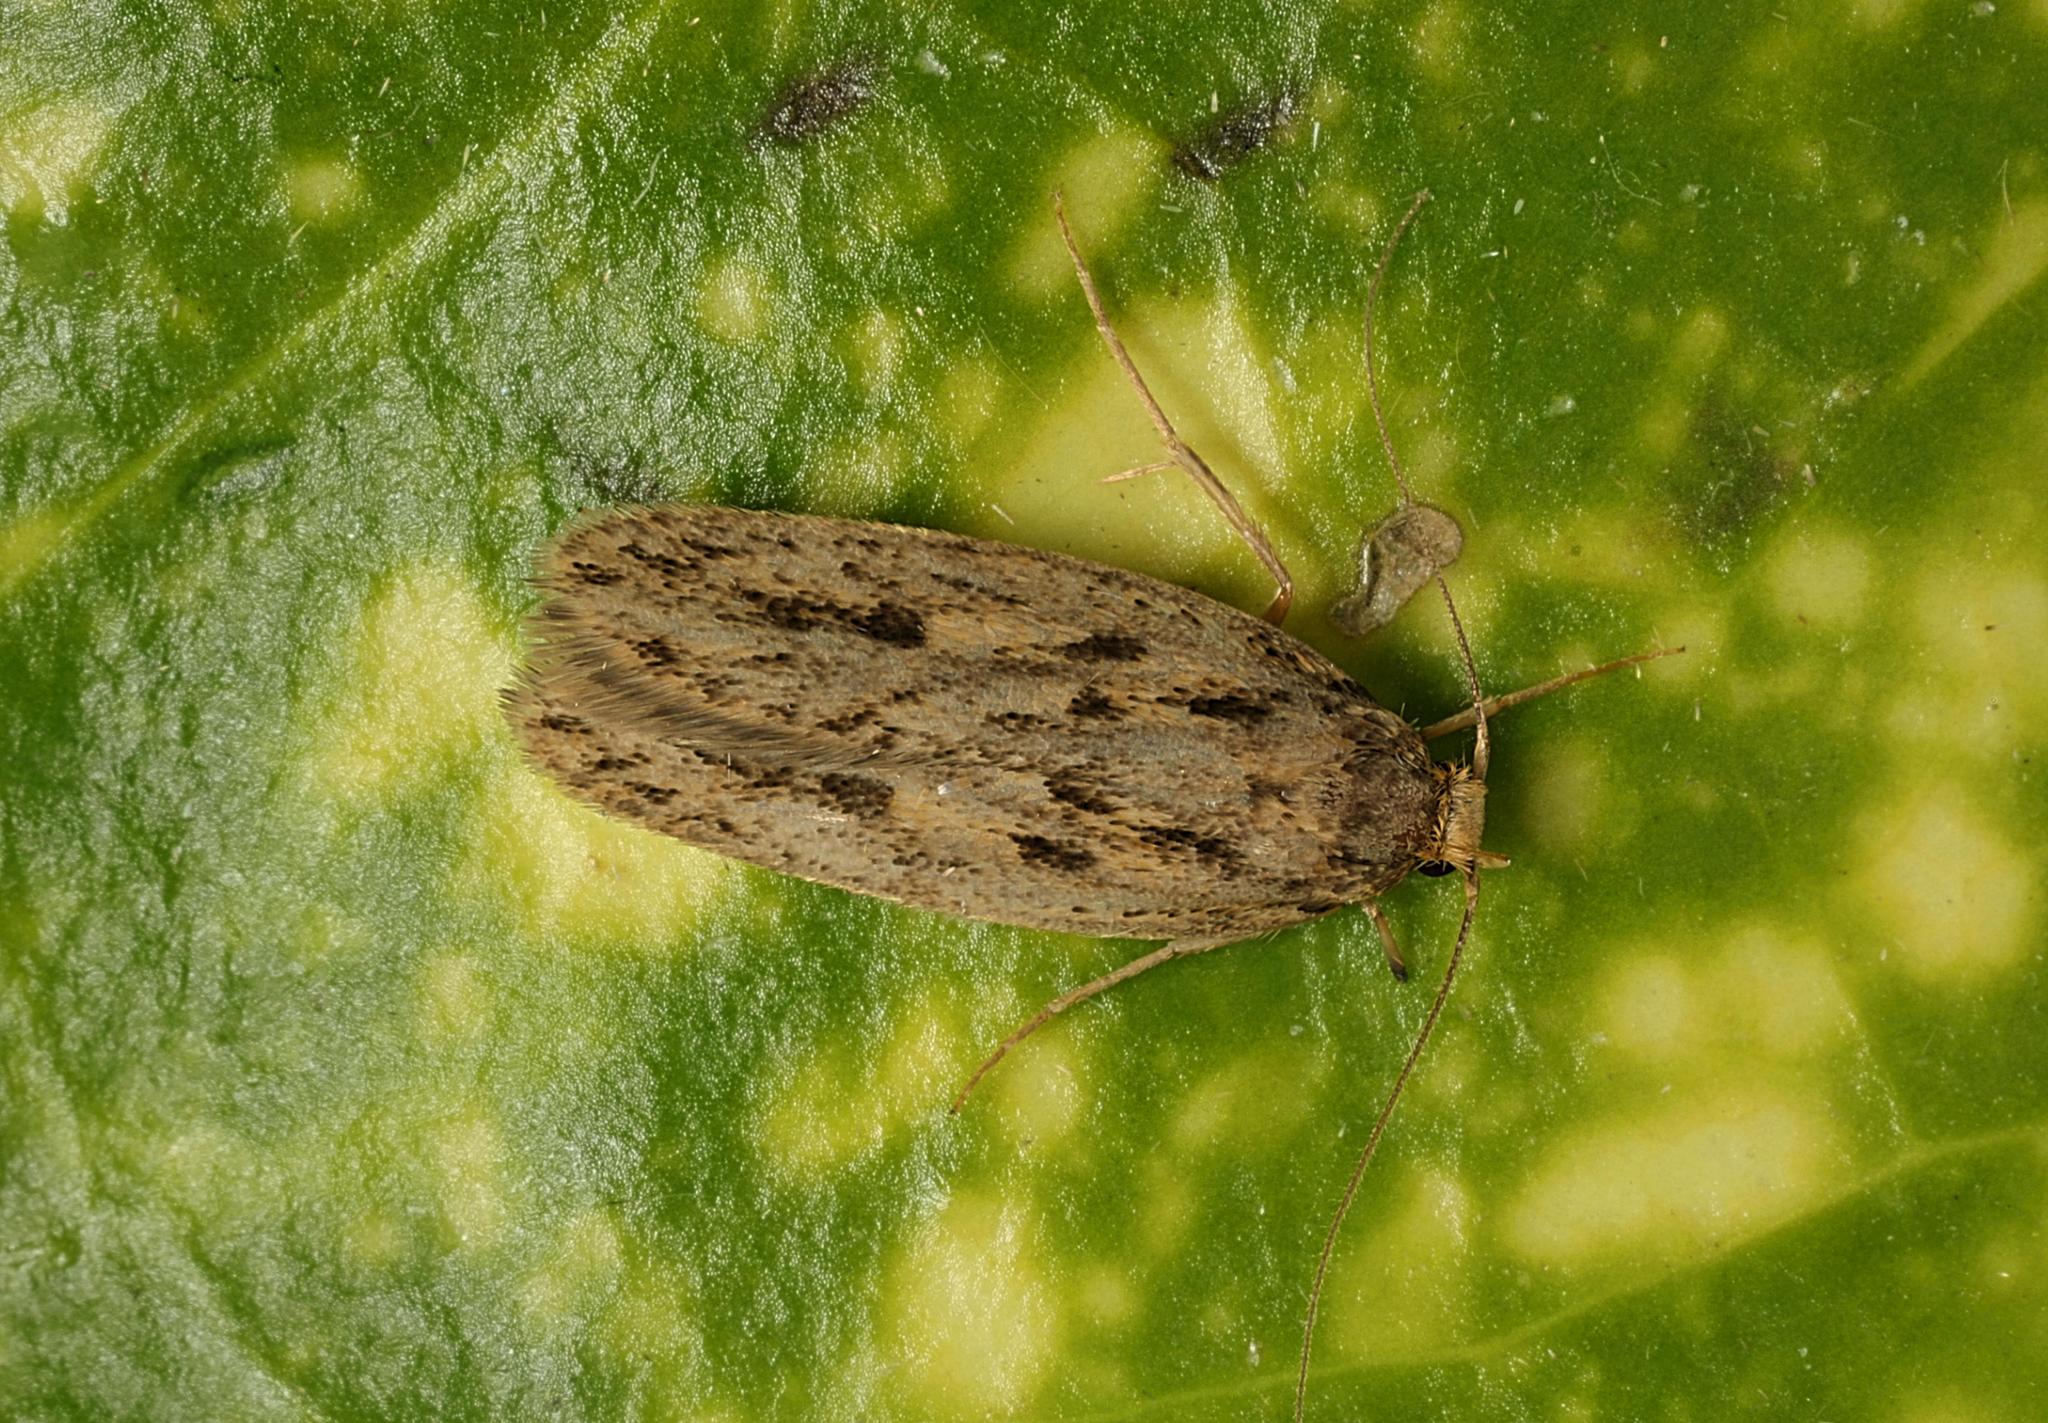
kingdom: Animalia
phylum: Arthropoda
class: Insecta
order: Lepidoptera
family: Oecophoridae
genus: Hofmannophila
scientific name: Hofmannophila pseudospretella
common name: Brown house moth
